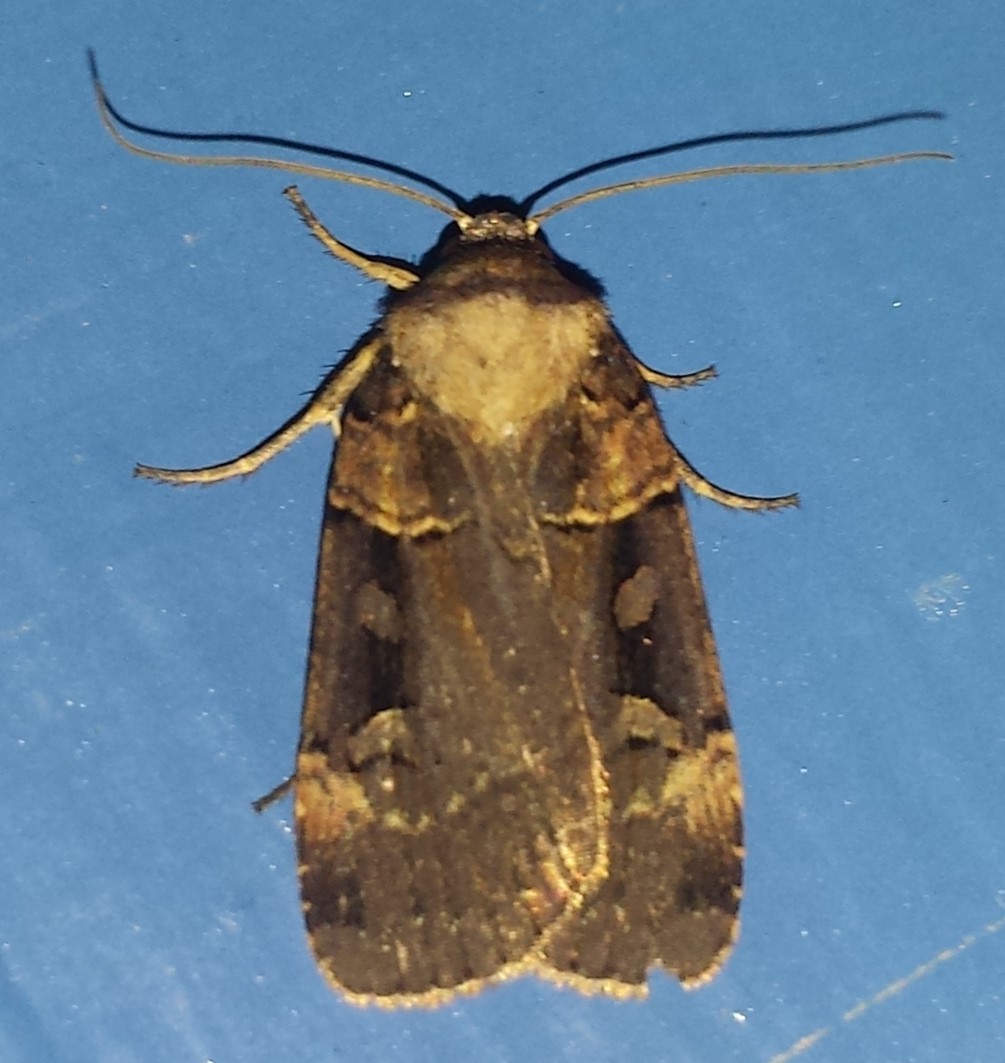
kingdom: Animalia
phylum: Arthropoda
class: Insecta
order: Lepidoptera
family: Noctuidae
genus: Pseudohermonassa
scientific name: Pseudohermonassa bicarnea
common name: Pink spotted dart
